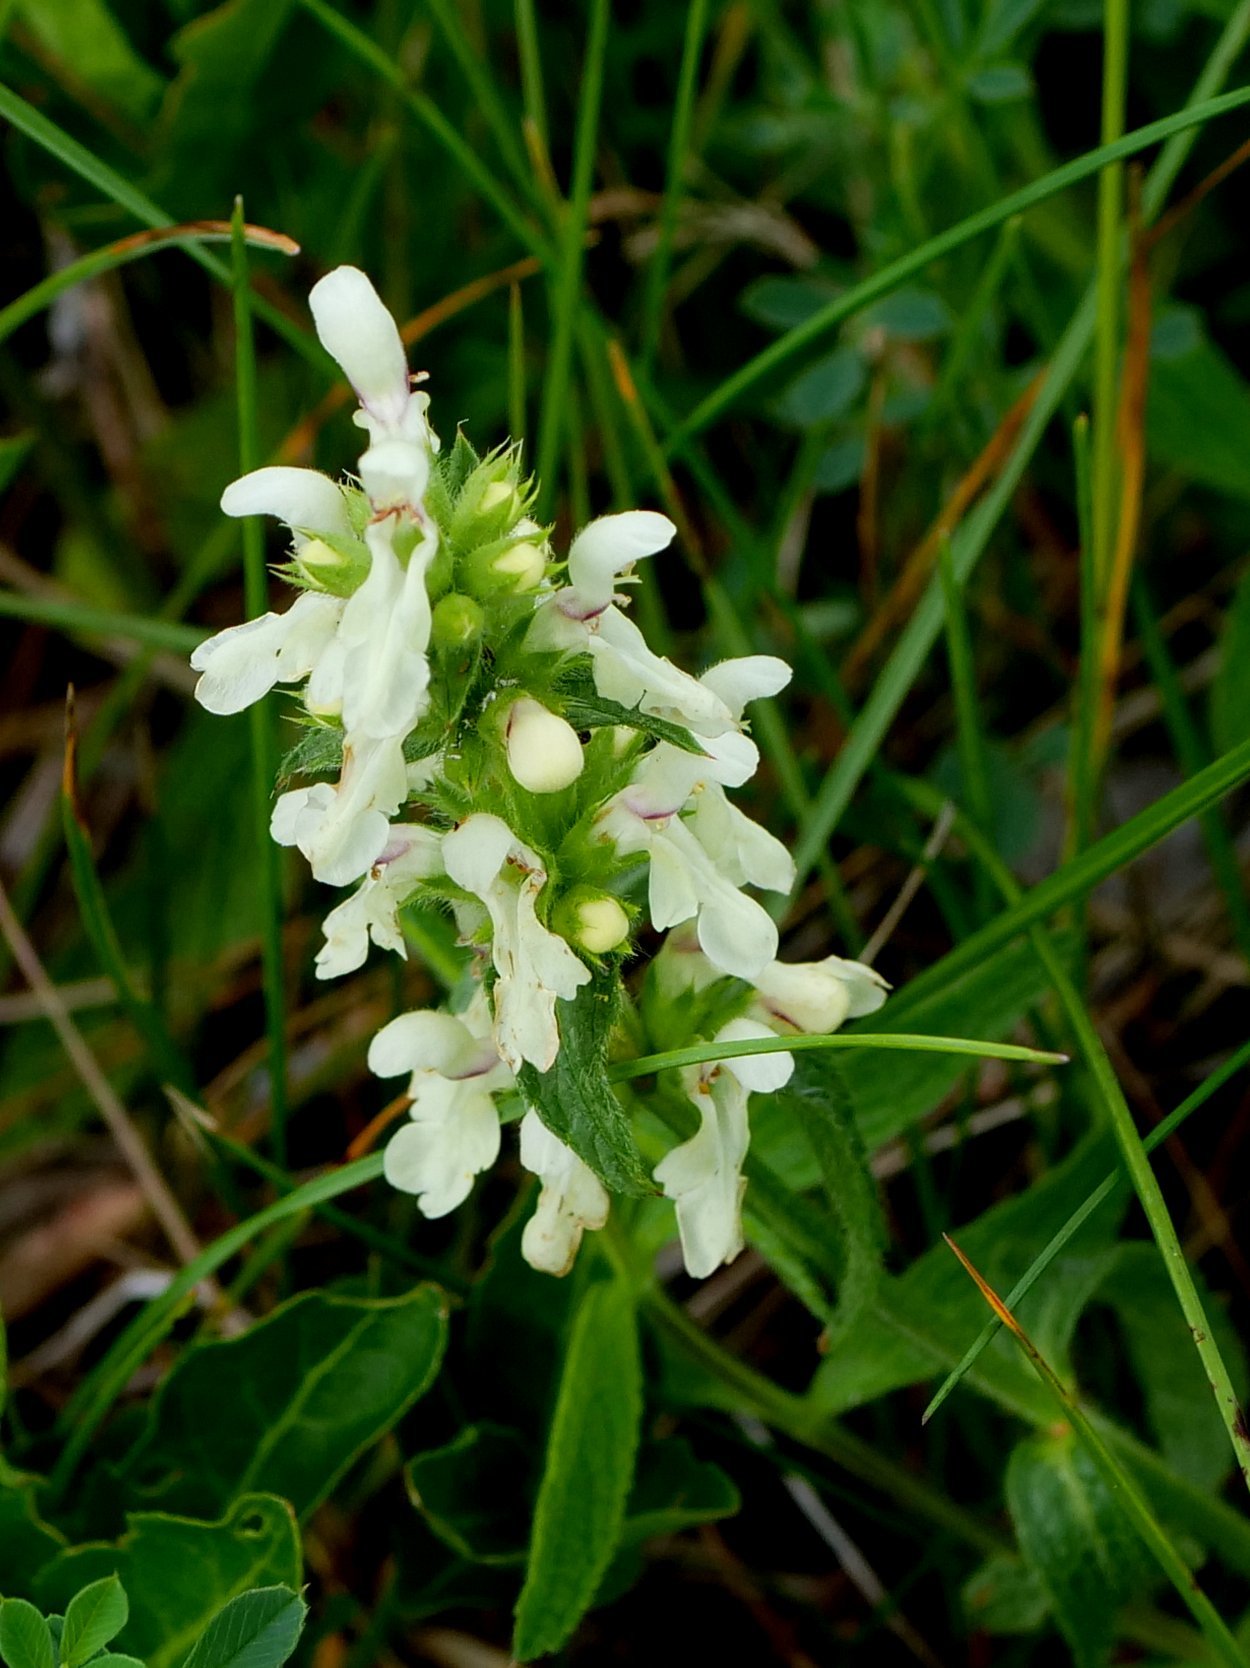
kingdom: Plantae
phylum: Tracheophyta
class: Magnoliopsida
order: Lamiales
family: Lamiaceae
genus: Stachys
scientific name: Stachys recta
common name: Perennial yellow-woundwort
